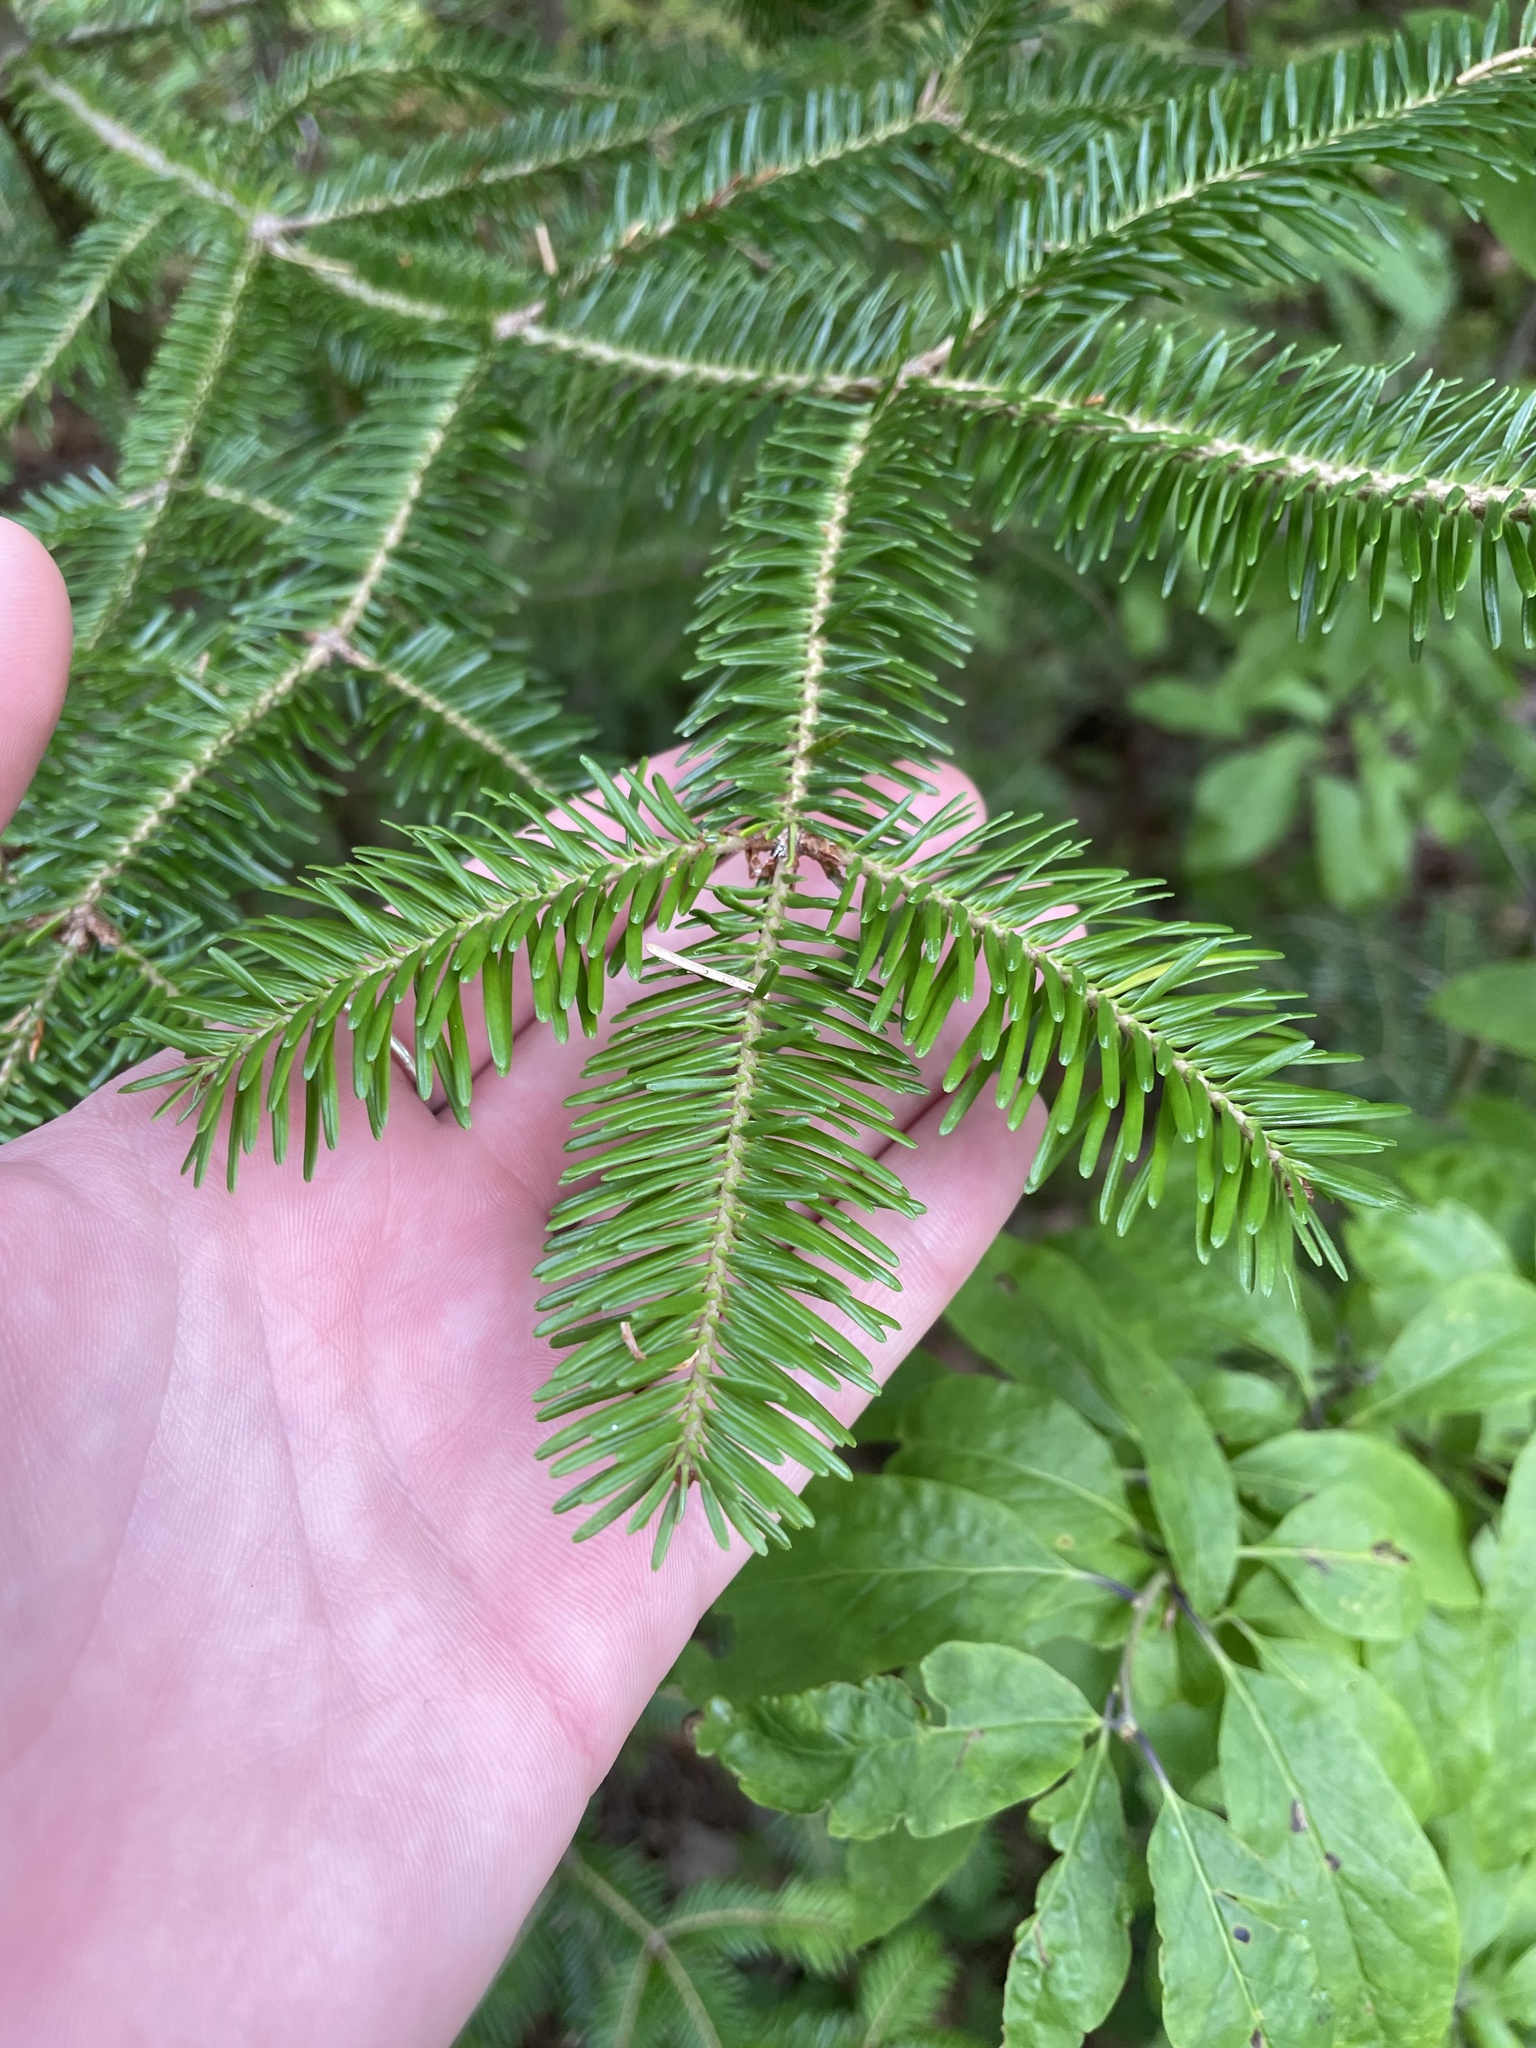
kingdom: Plantae
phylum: Tracheophyta
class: Pinopsida
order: Pinales
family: Pinaceae
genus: Abies
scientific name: Abies balsamea
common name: Balsam fir
